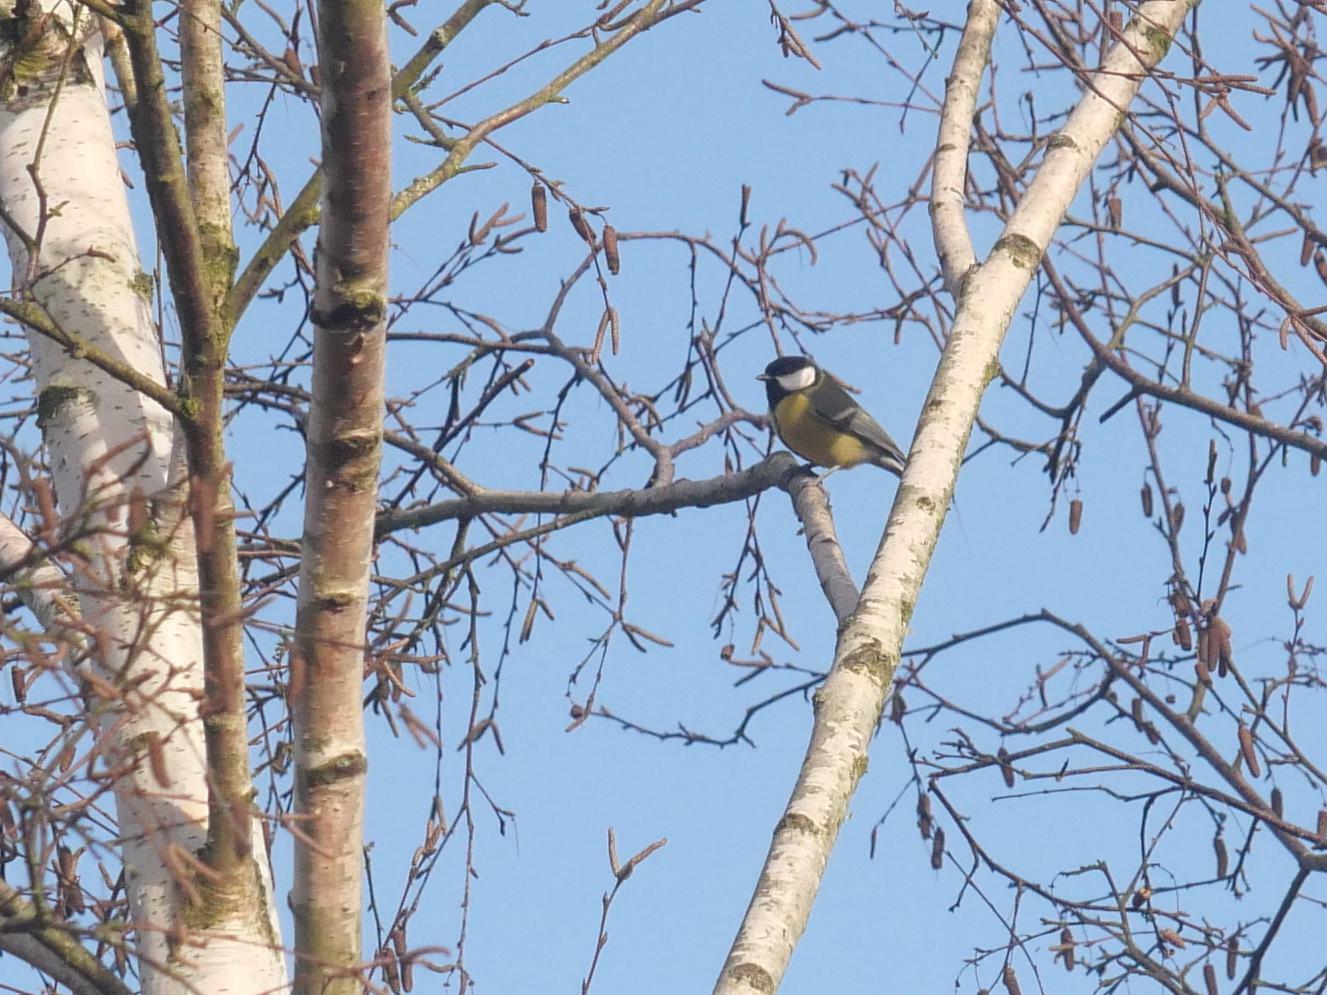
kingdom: Animalia
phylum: Chordata
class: Aves
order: Passeriformes
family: Paridae
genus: Parus
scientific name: Parus major
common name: Great tit
